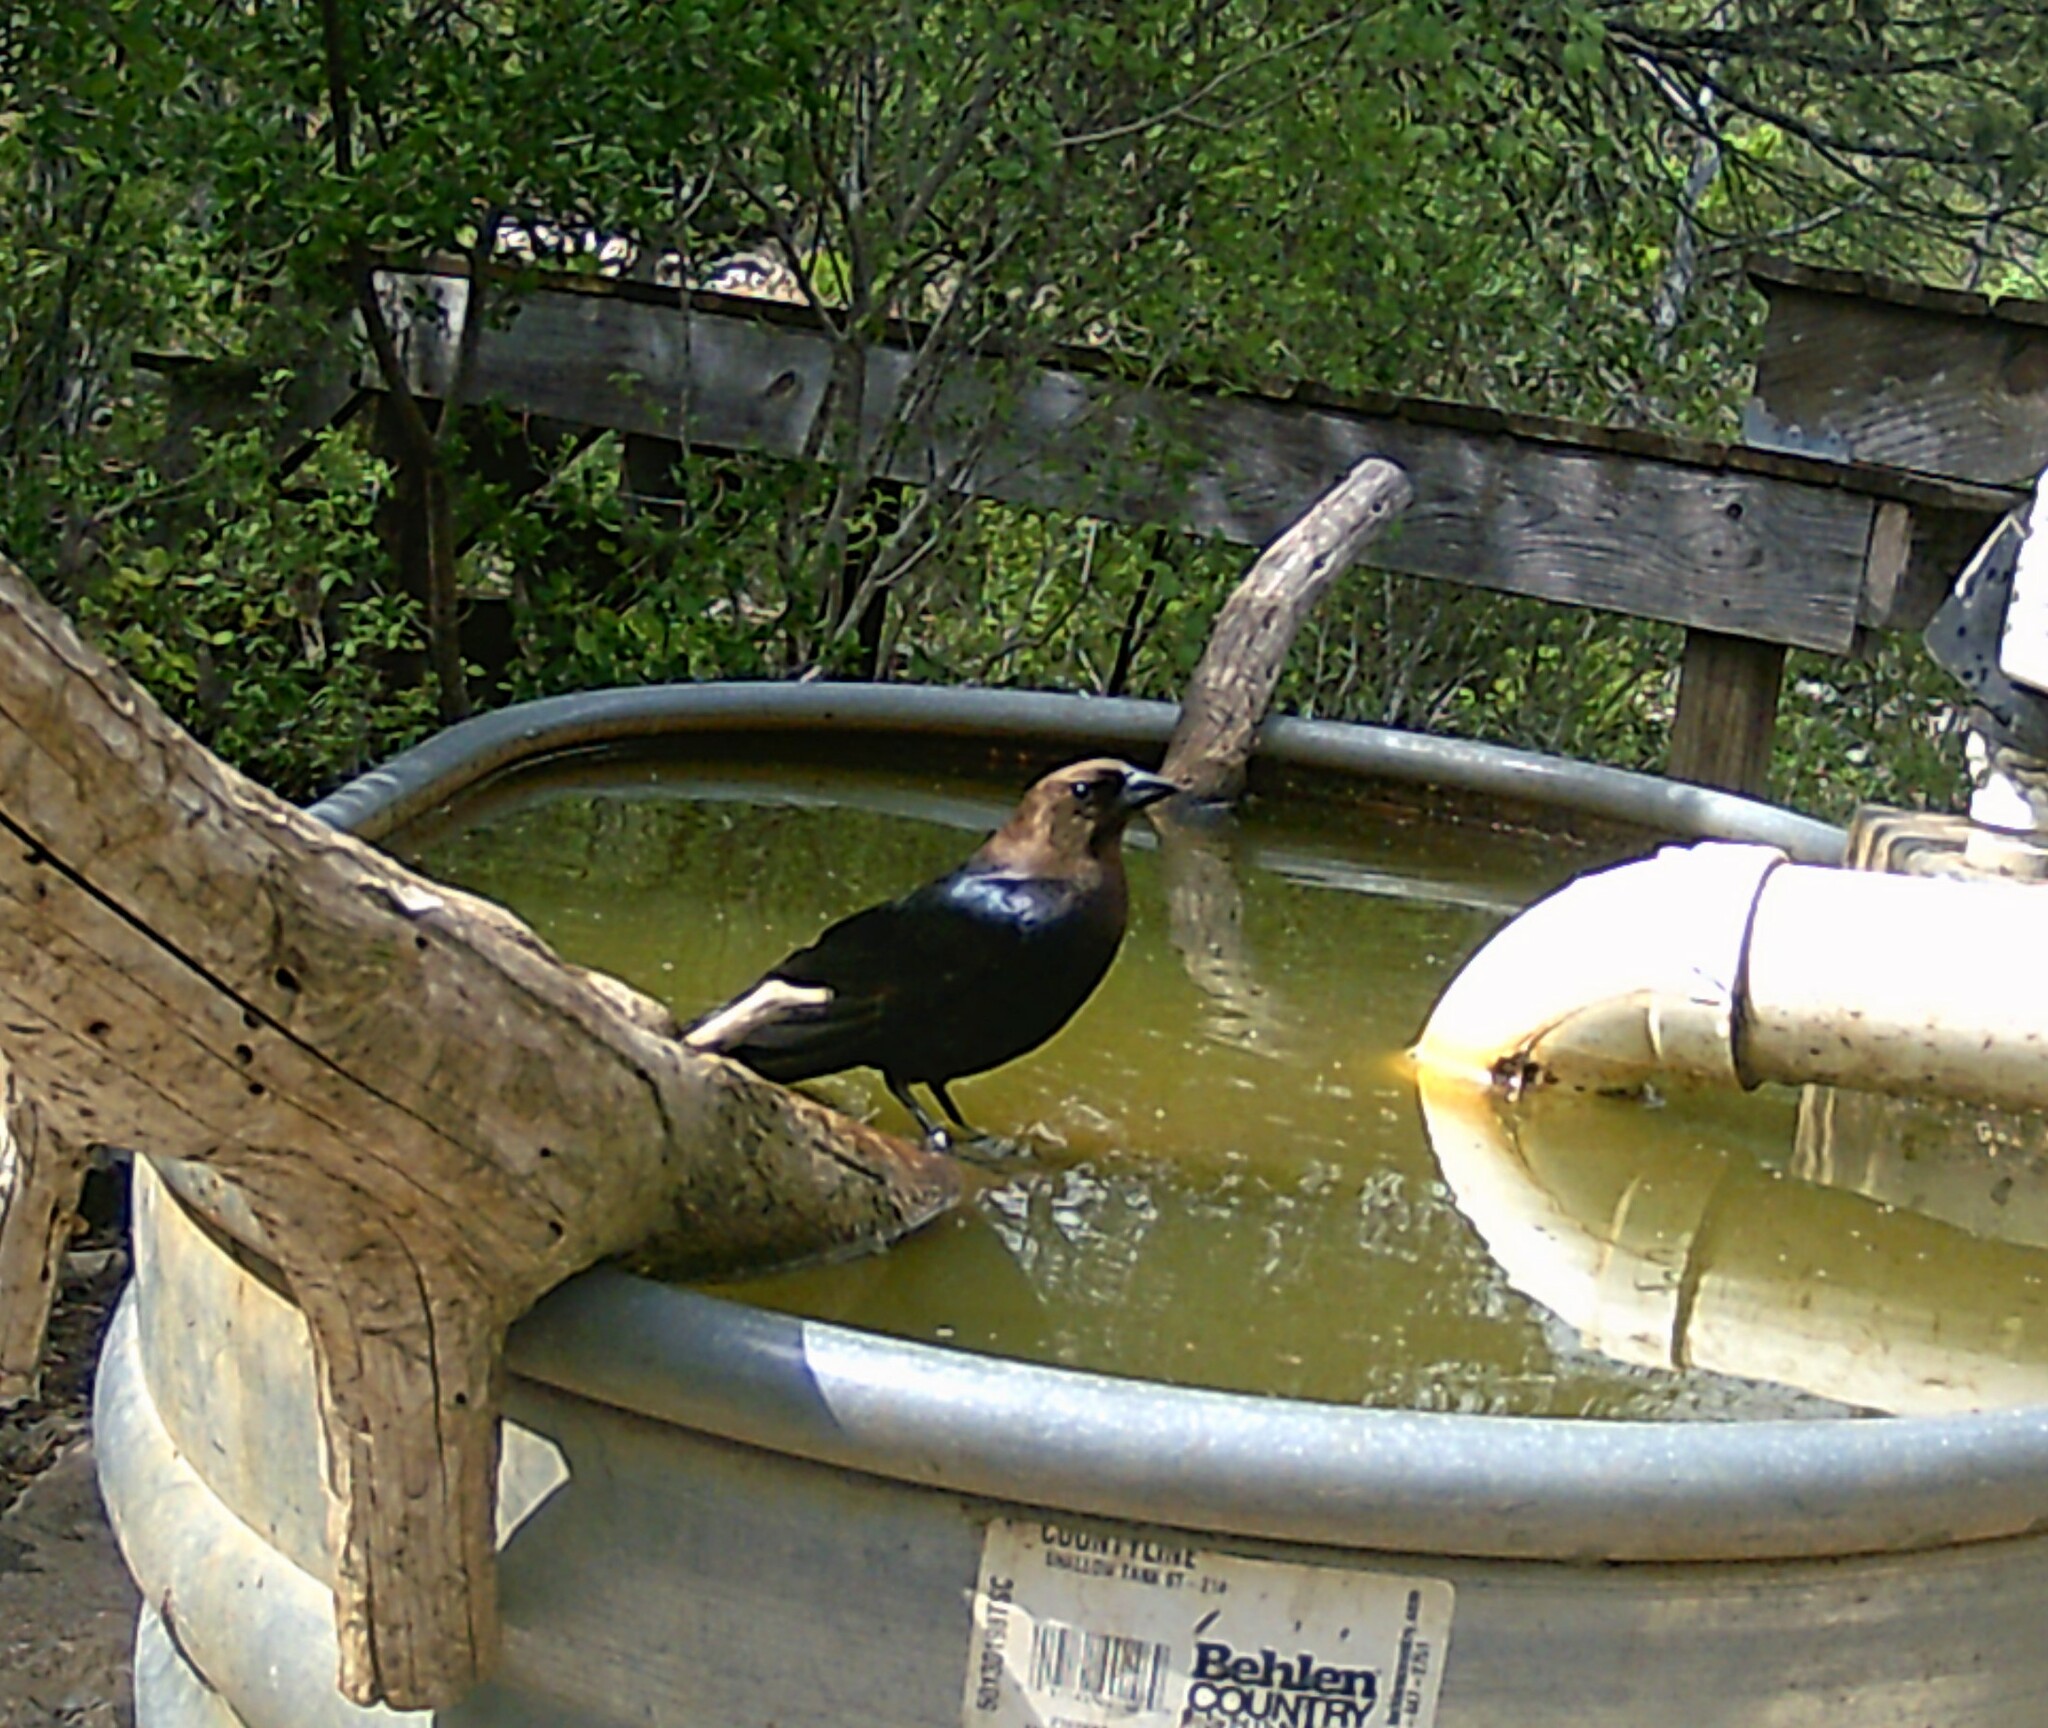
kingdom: Animalia
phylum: Chordata
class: Aves
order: Passeriformes
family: Icteridae
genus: Molothrus
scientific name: Molothrus ater
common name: Brown-headed cowbird
